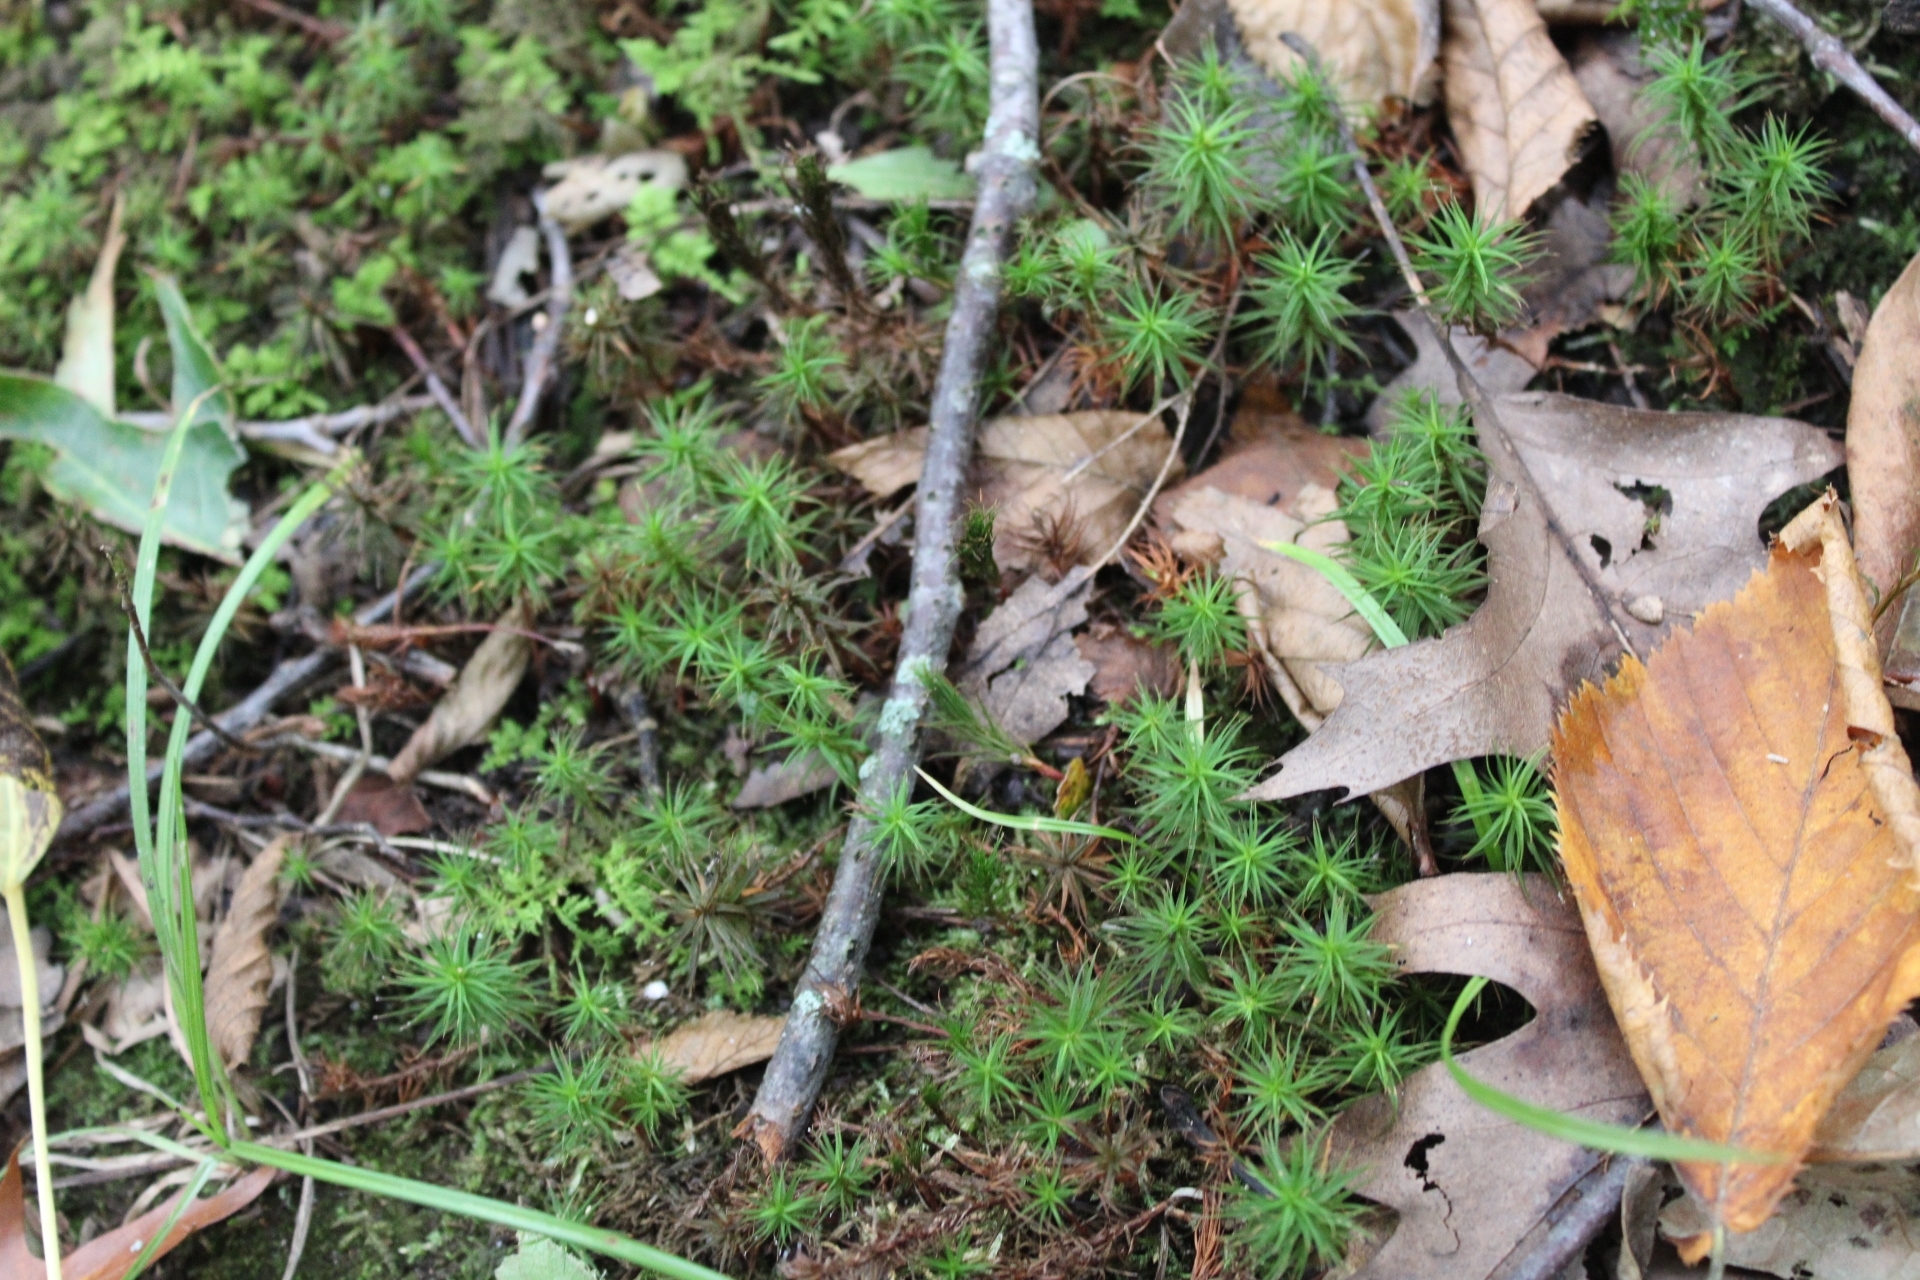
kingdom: Plantae
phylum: Bryophyta
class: Polytrichopsida
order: Polytrichales
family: Polytrichaceae
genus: Polytrichum
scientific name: Polytrichum commune
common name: Common haircap
